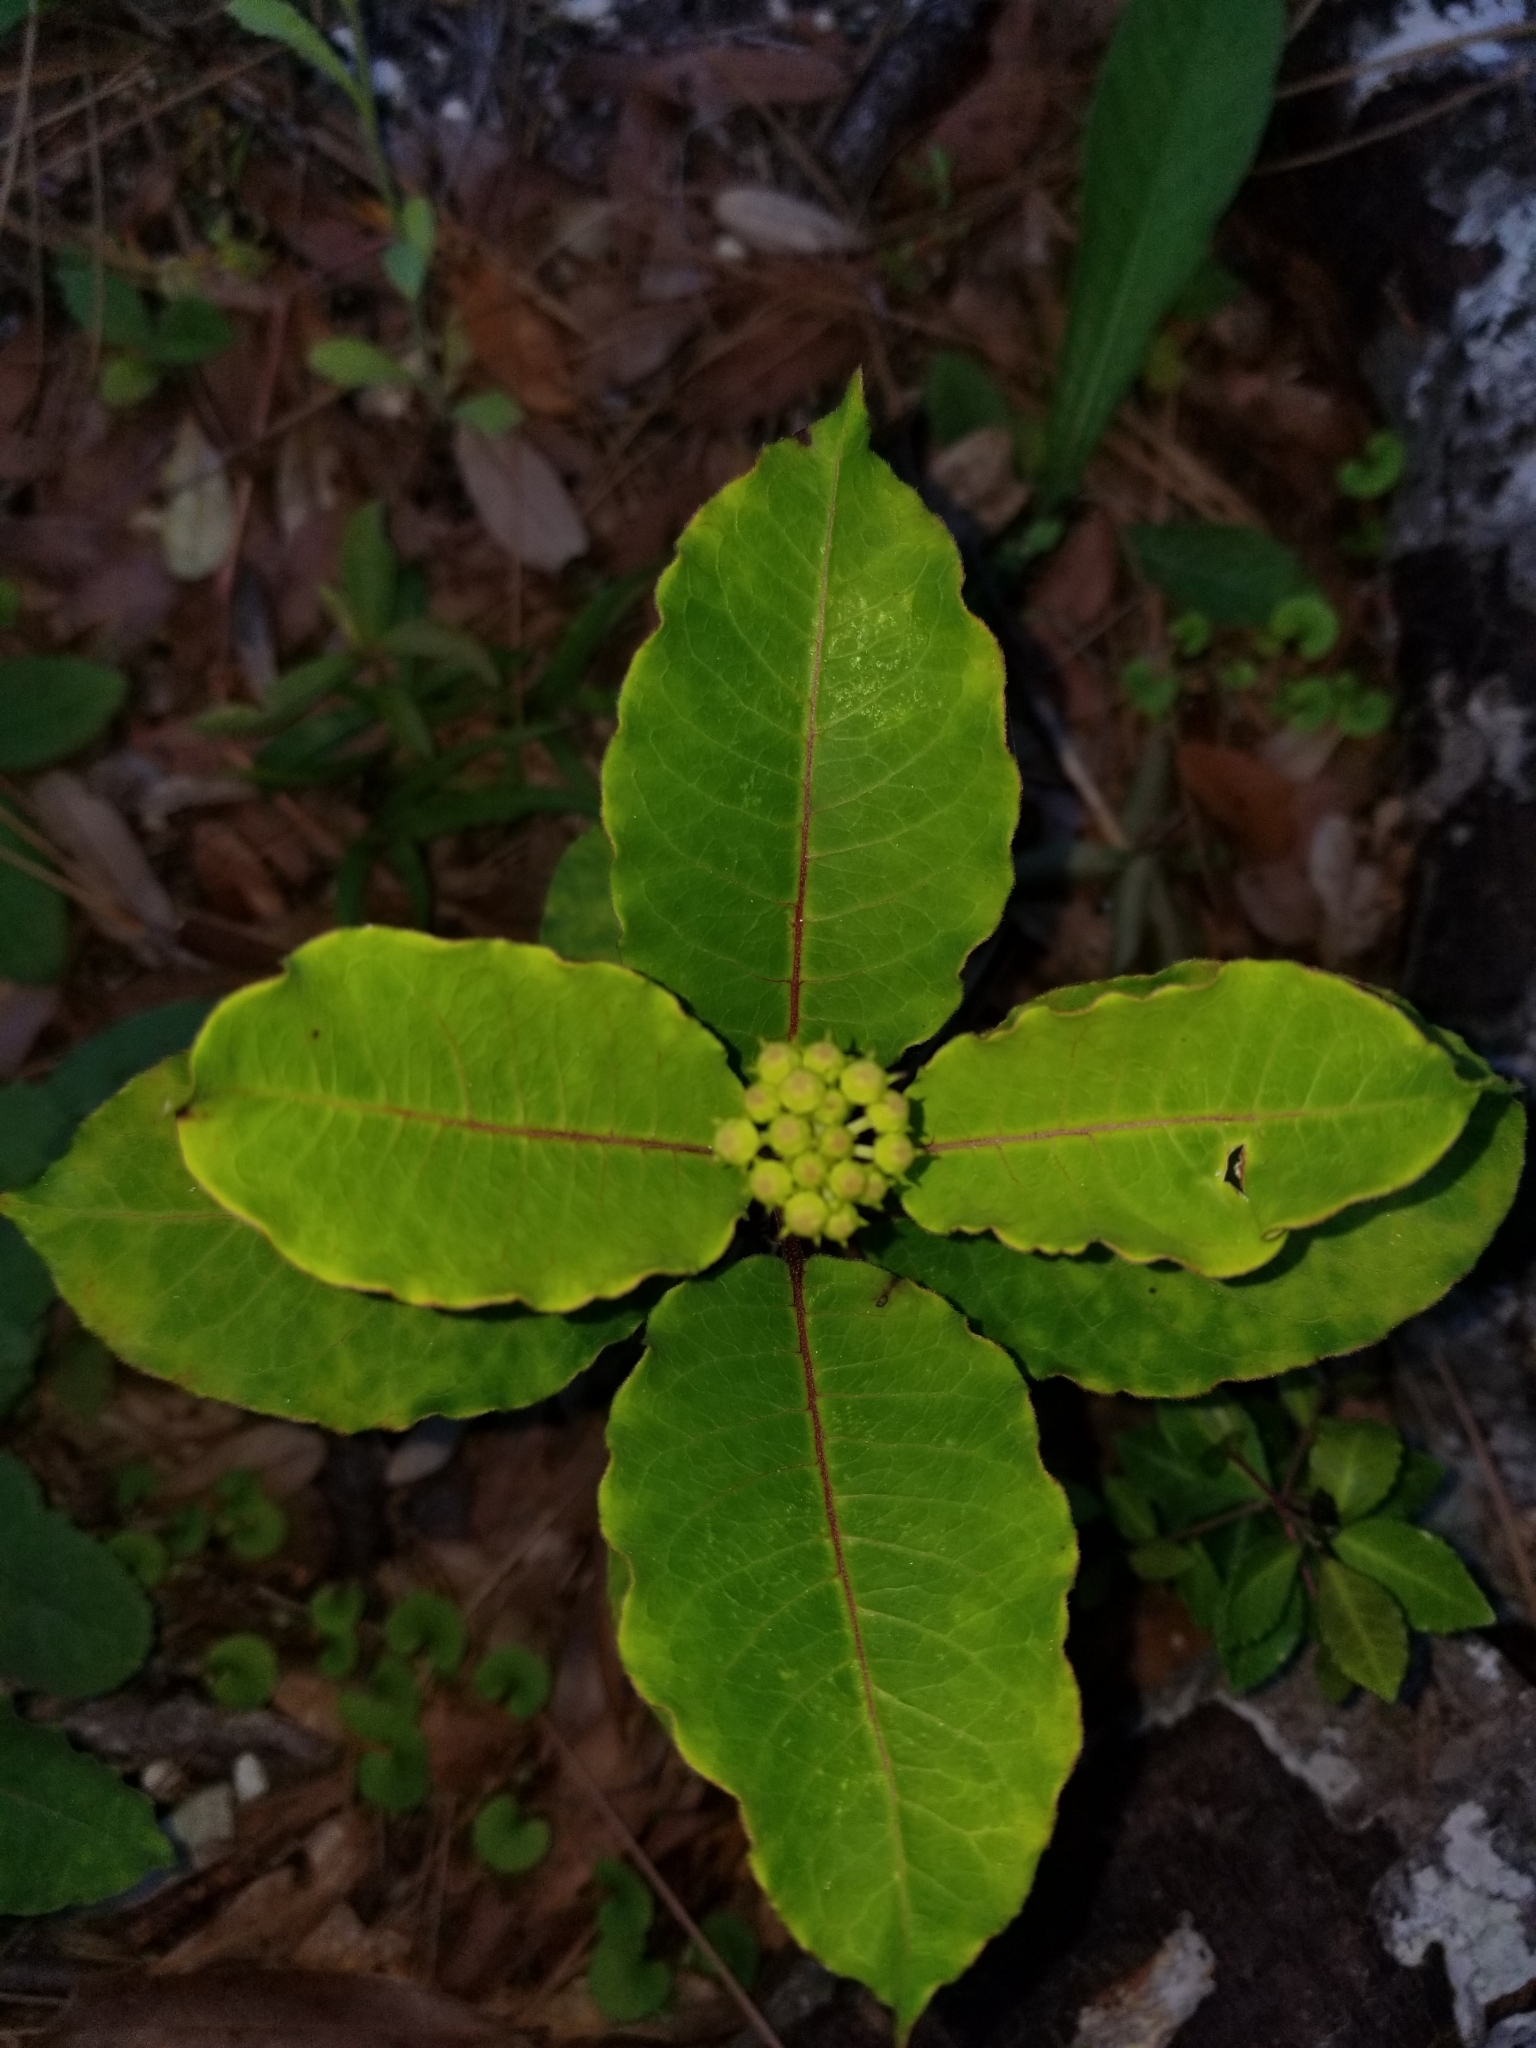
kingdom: Plantae
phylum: Tracheophyta
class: Magnoliopsida
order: Gentianales
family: Apocynaceae
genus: Asclepias
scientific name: Asclepias variegata
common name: Variegated milkweed
